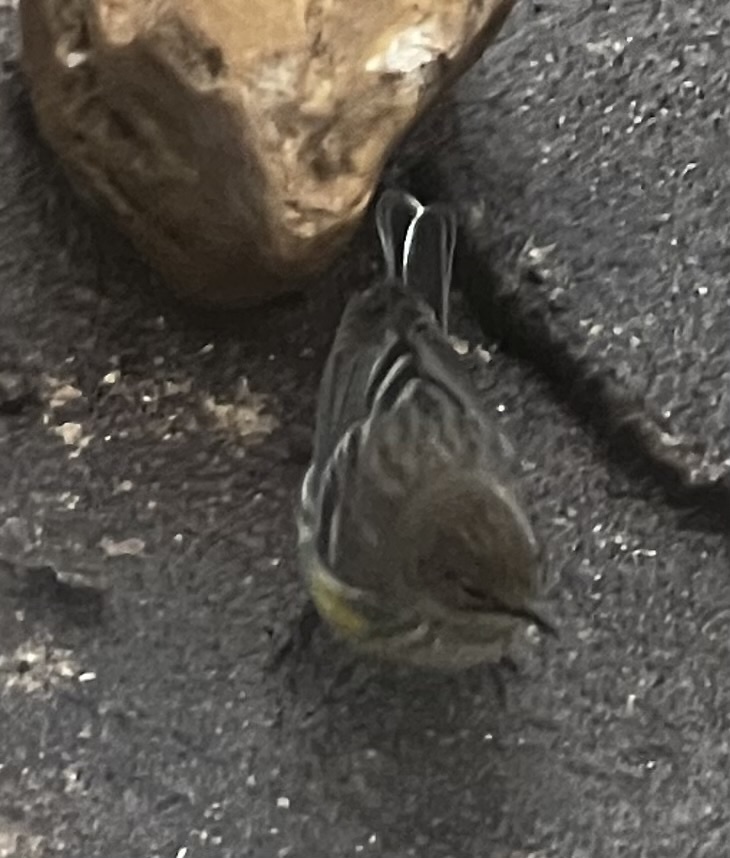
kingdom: Animalia
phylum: Chordata
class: Aves
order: Passeriformes
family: Parulidae
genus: Setophaga
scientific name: Setophaga coronata
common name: Myrtle warbler
